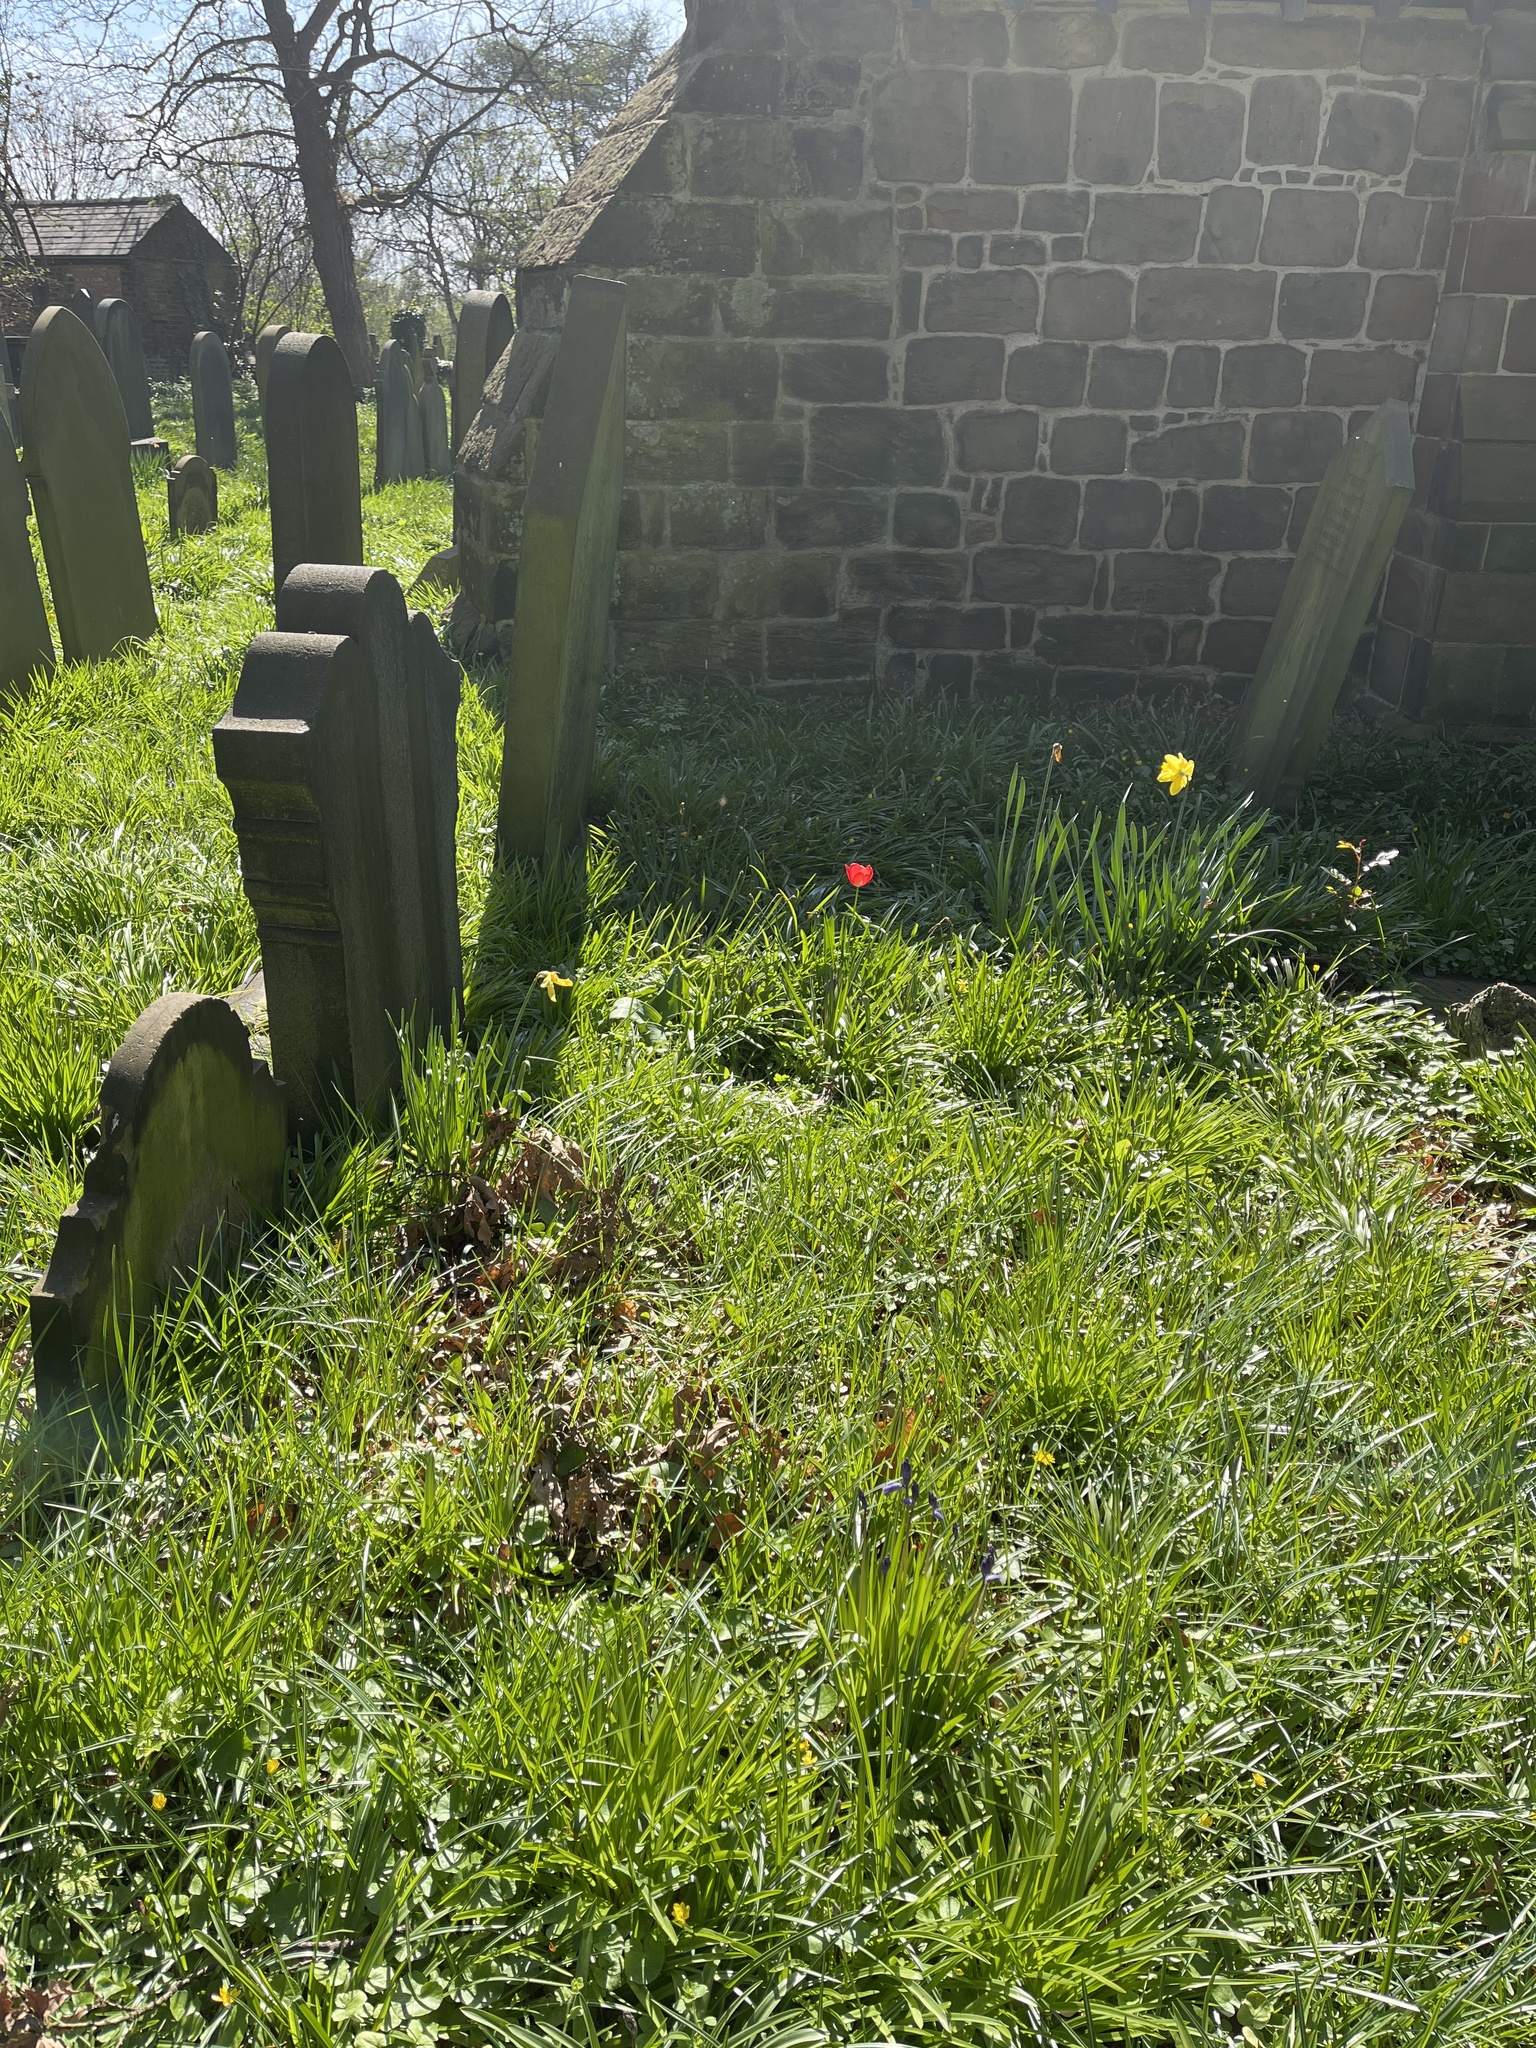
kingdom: Plantae
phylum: Tracheophyta
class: Liliopsida
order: Liliales
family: Liliaceae
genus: Tulipa
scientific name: Tulipa gesneriana
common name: Garden tulip
